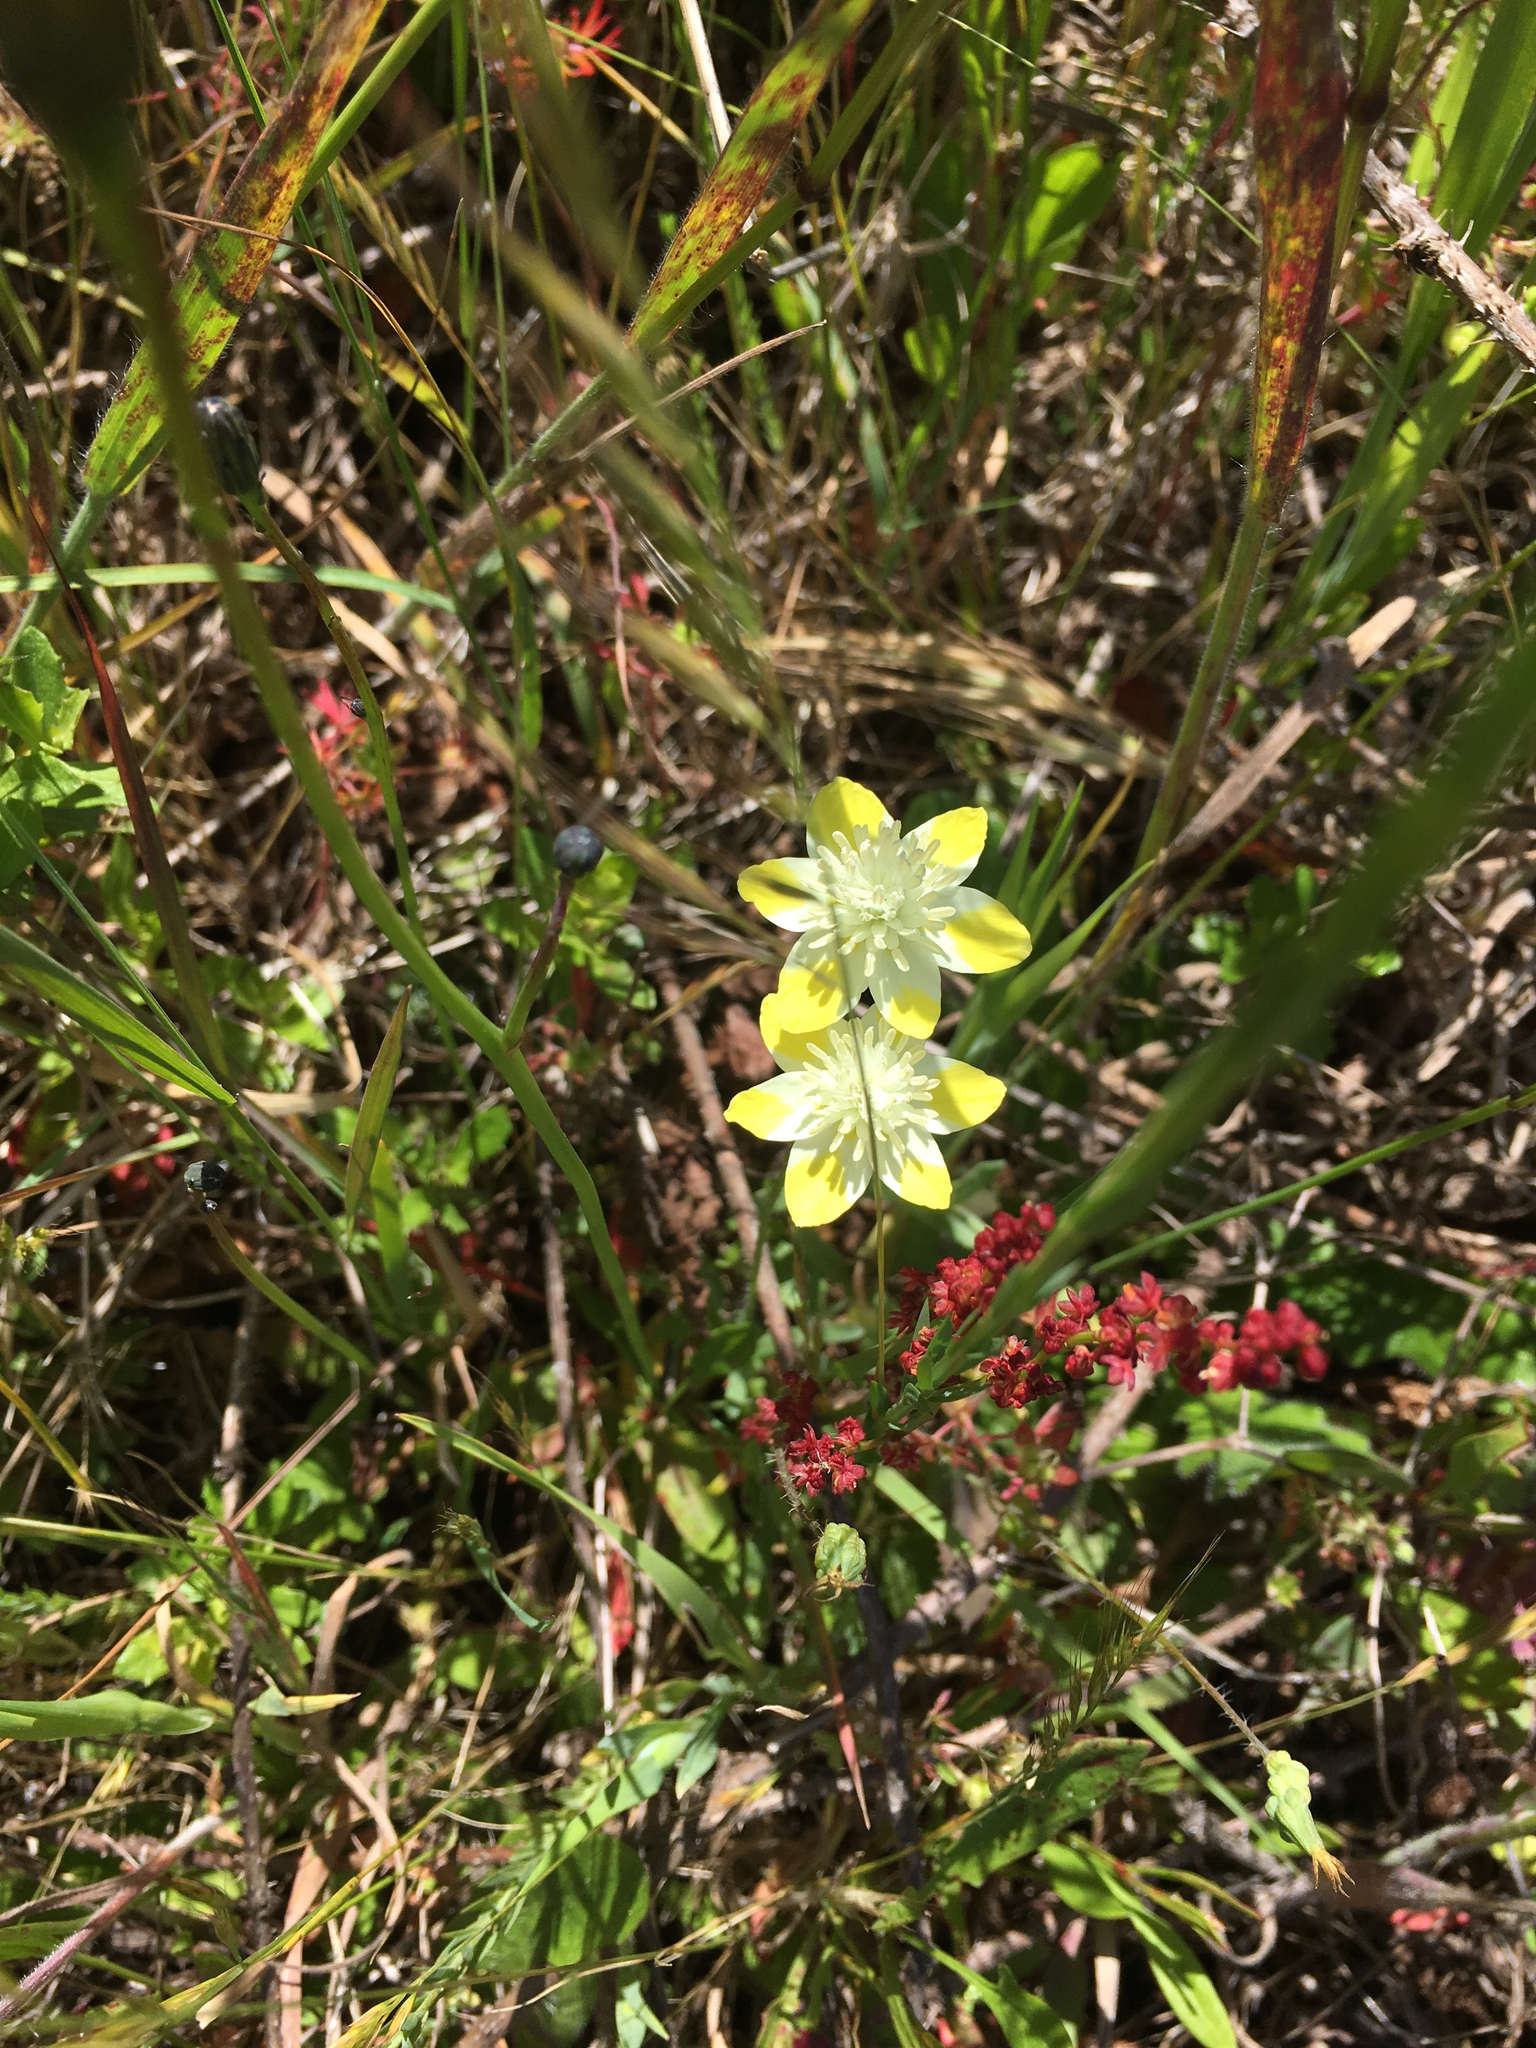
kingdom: Plantae
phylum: Tracheophyta
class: Magnoliopsida
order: Ranunculales
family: Papaveraceae
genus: Platystemon
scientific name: Platystemon californicus
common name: Cream-cups
